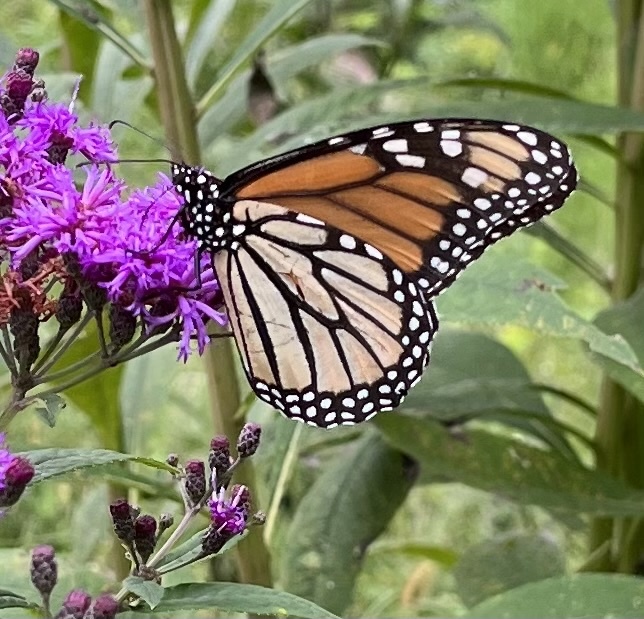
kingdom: Animalia
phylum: Arthropoda
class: Insecta
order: Lepidoptera
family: Nymphalidae
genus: Danaus
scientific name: Danaus plexippus
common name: Monarch
